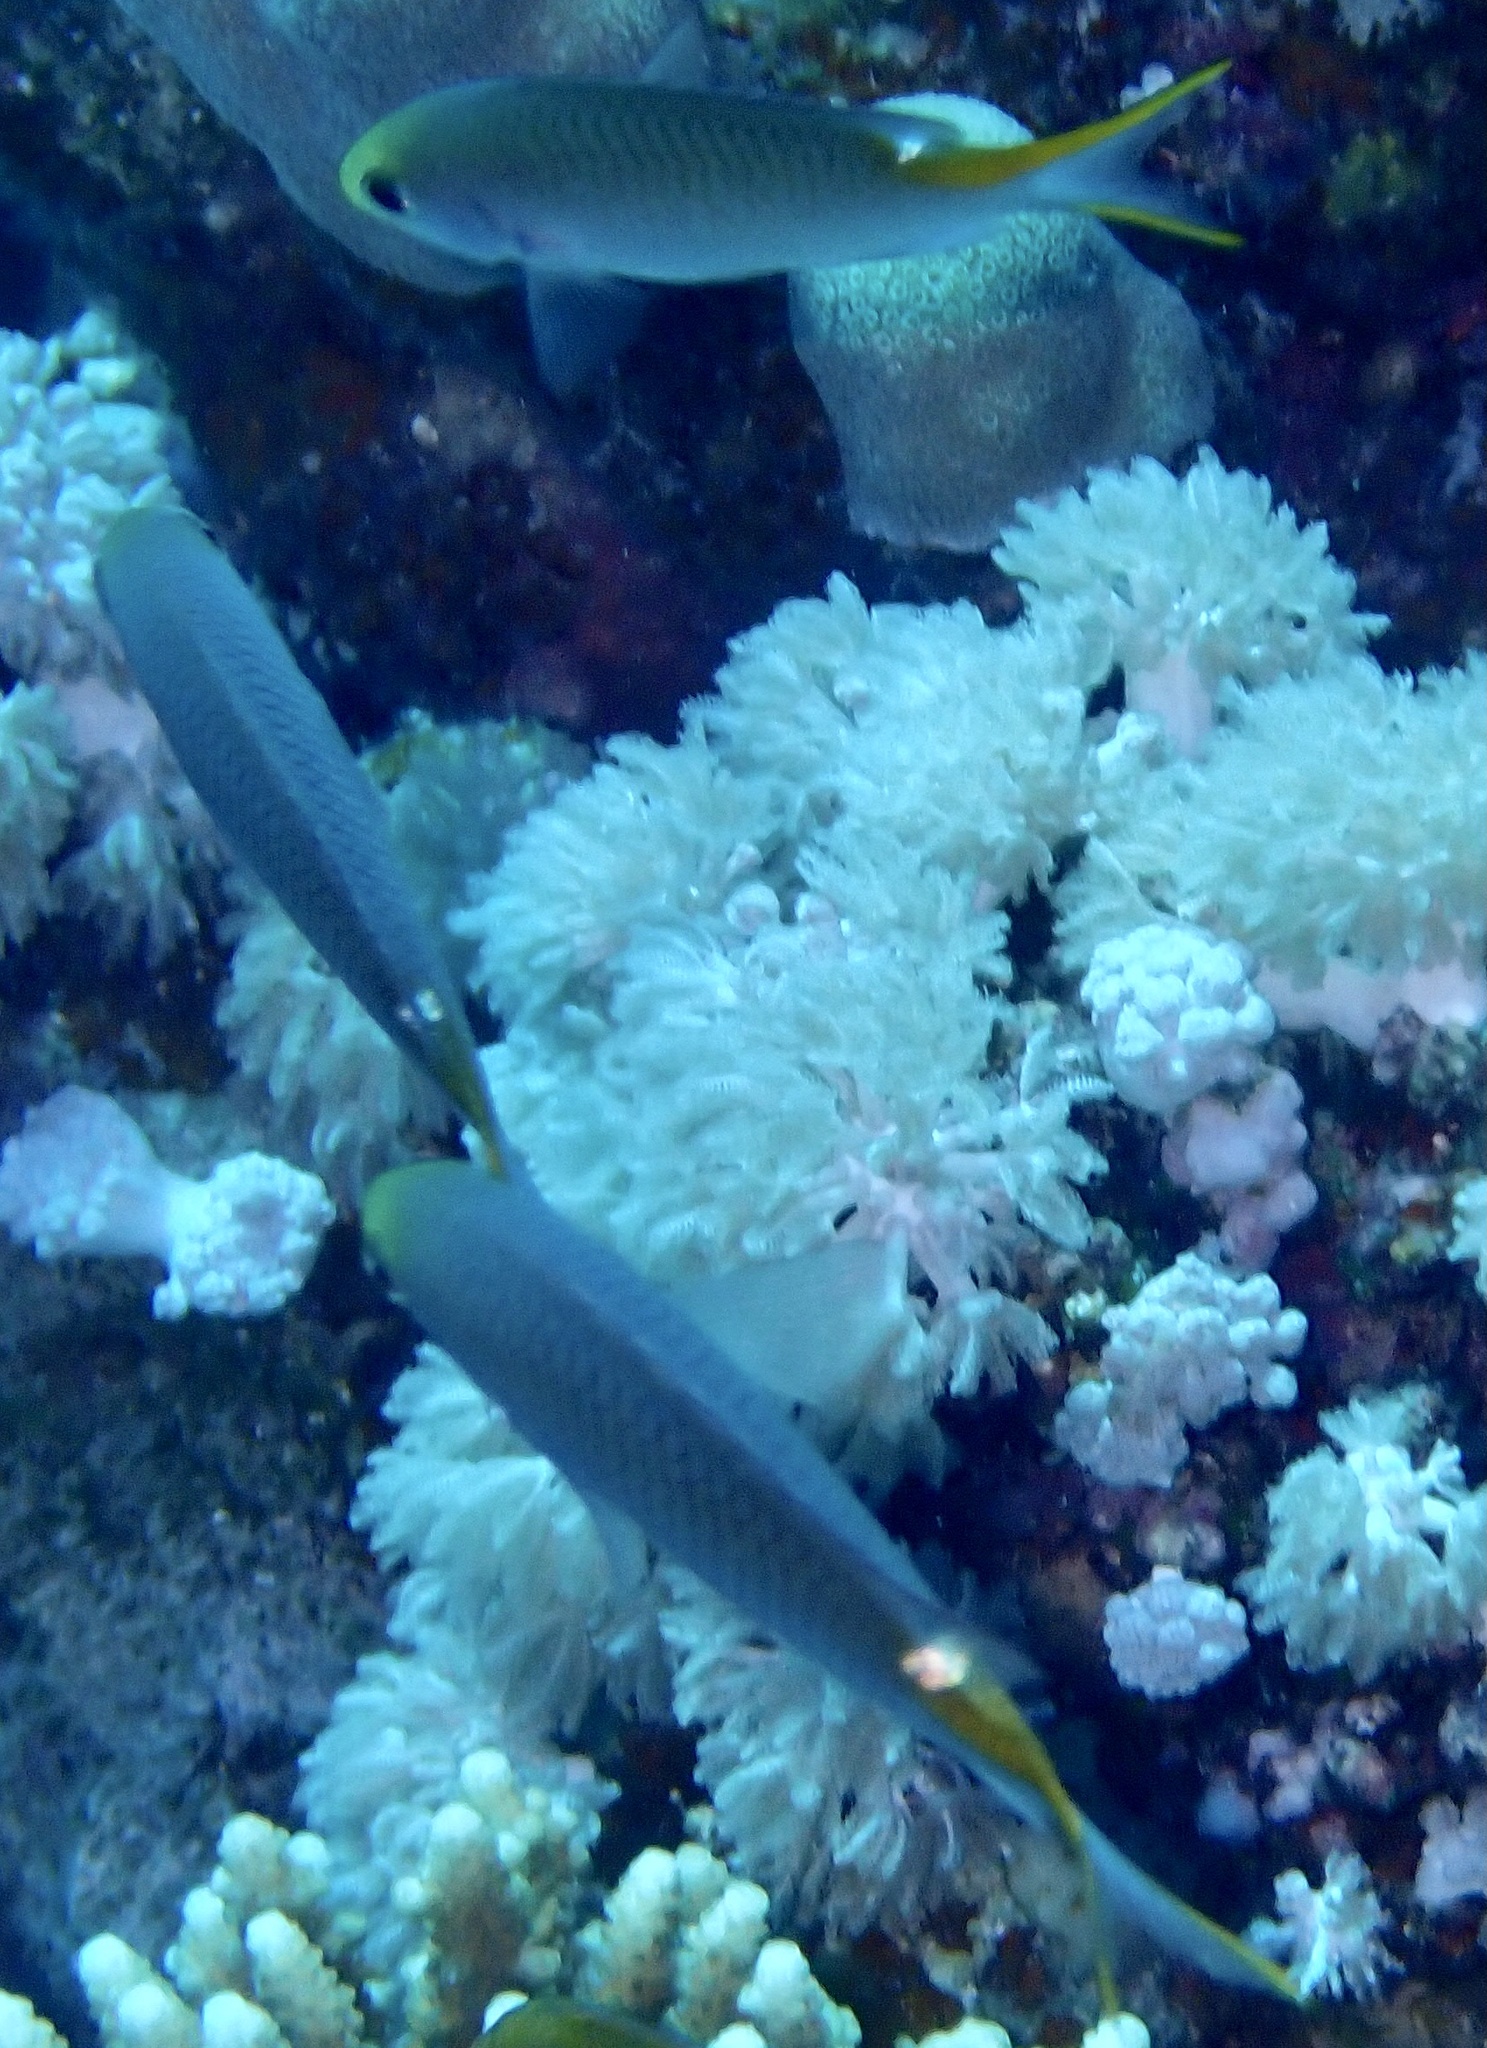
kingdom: Animalia
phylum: Chordata
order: Perciformes
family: Pomacentridae
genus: Neopomacentrus
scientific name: Neopomacentrus miryae
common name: Miry's demoiselle
